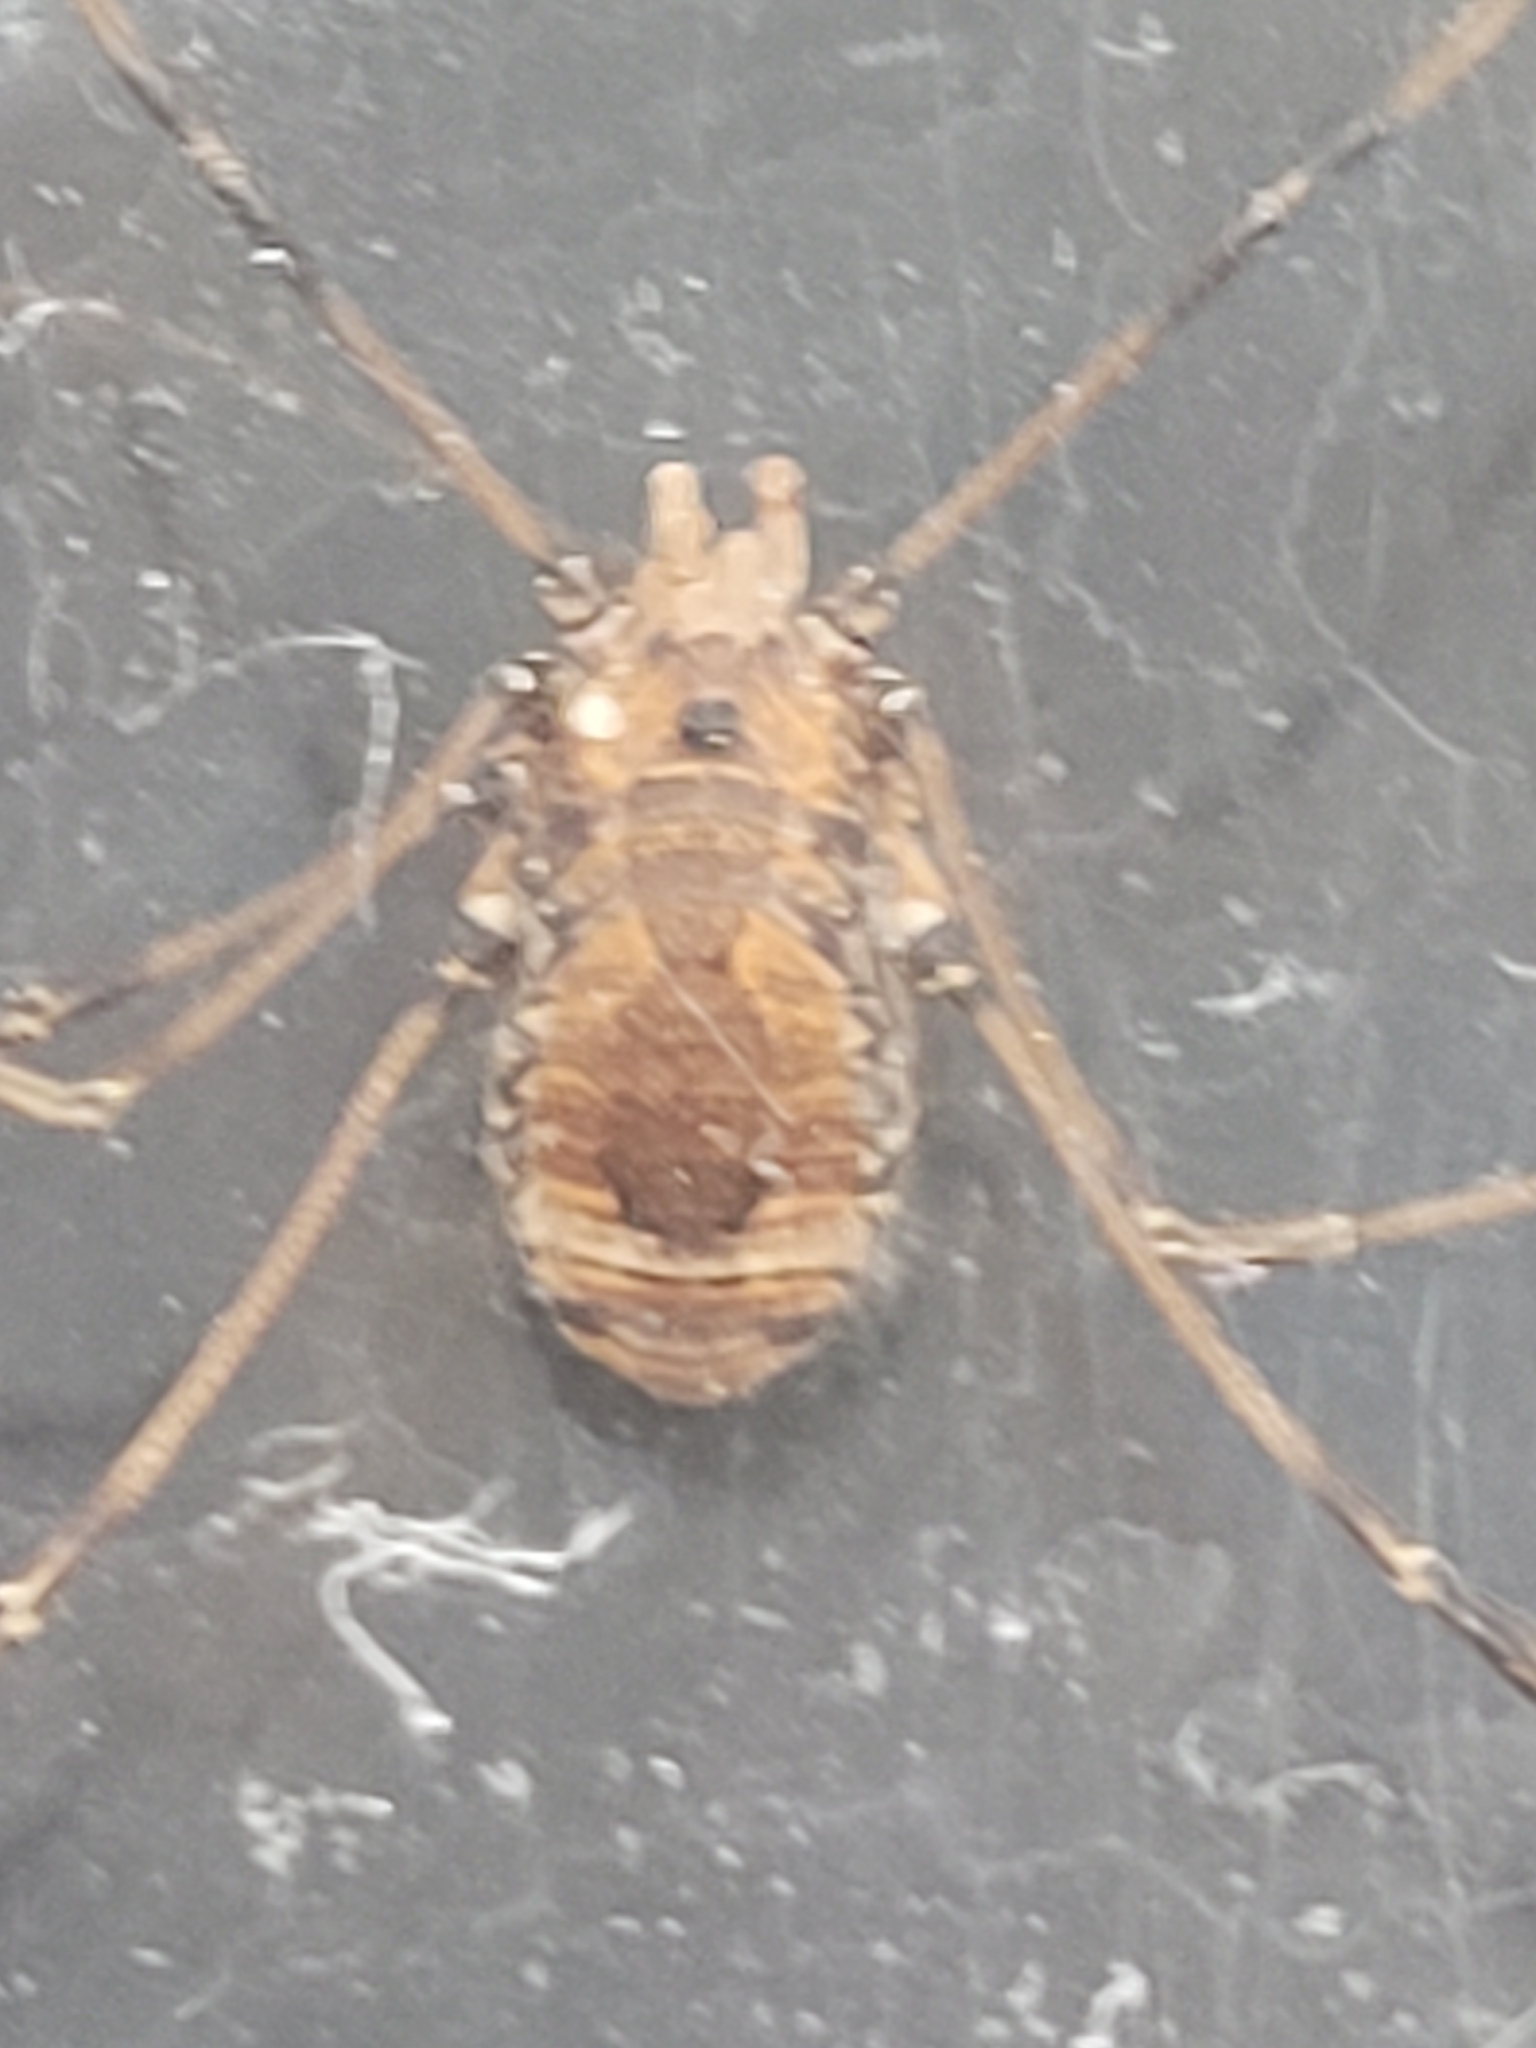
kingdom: Animalia
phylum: Arthropoda
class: Arachnida
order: Opiliones
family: Sclerosomatidae
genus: Leiobunum
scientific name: Leiobunum verrucosum
